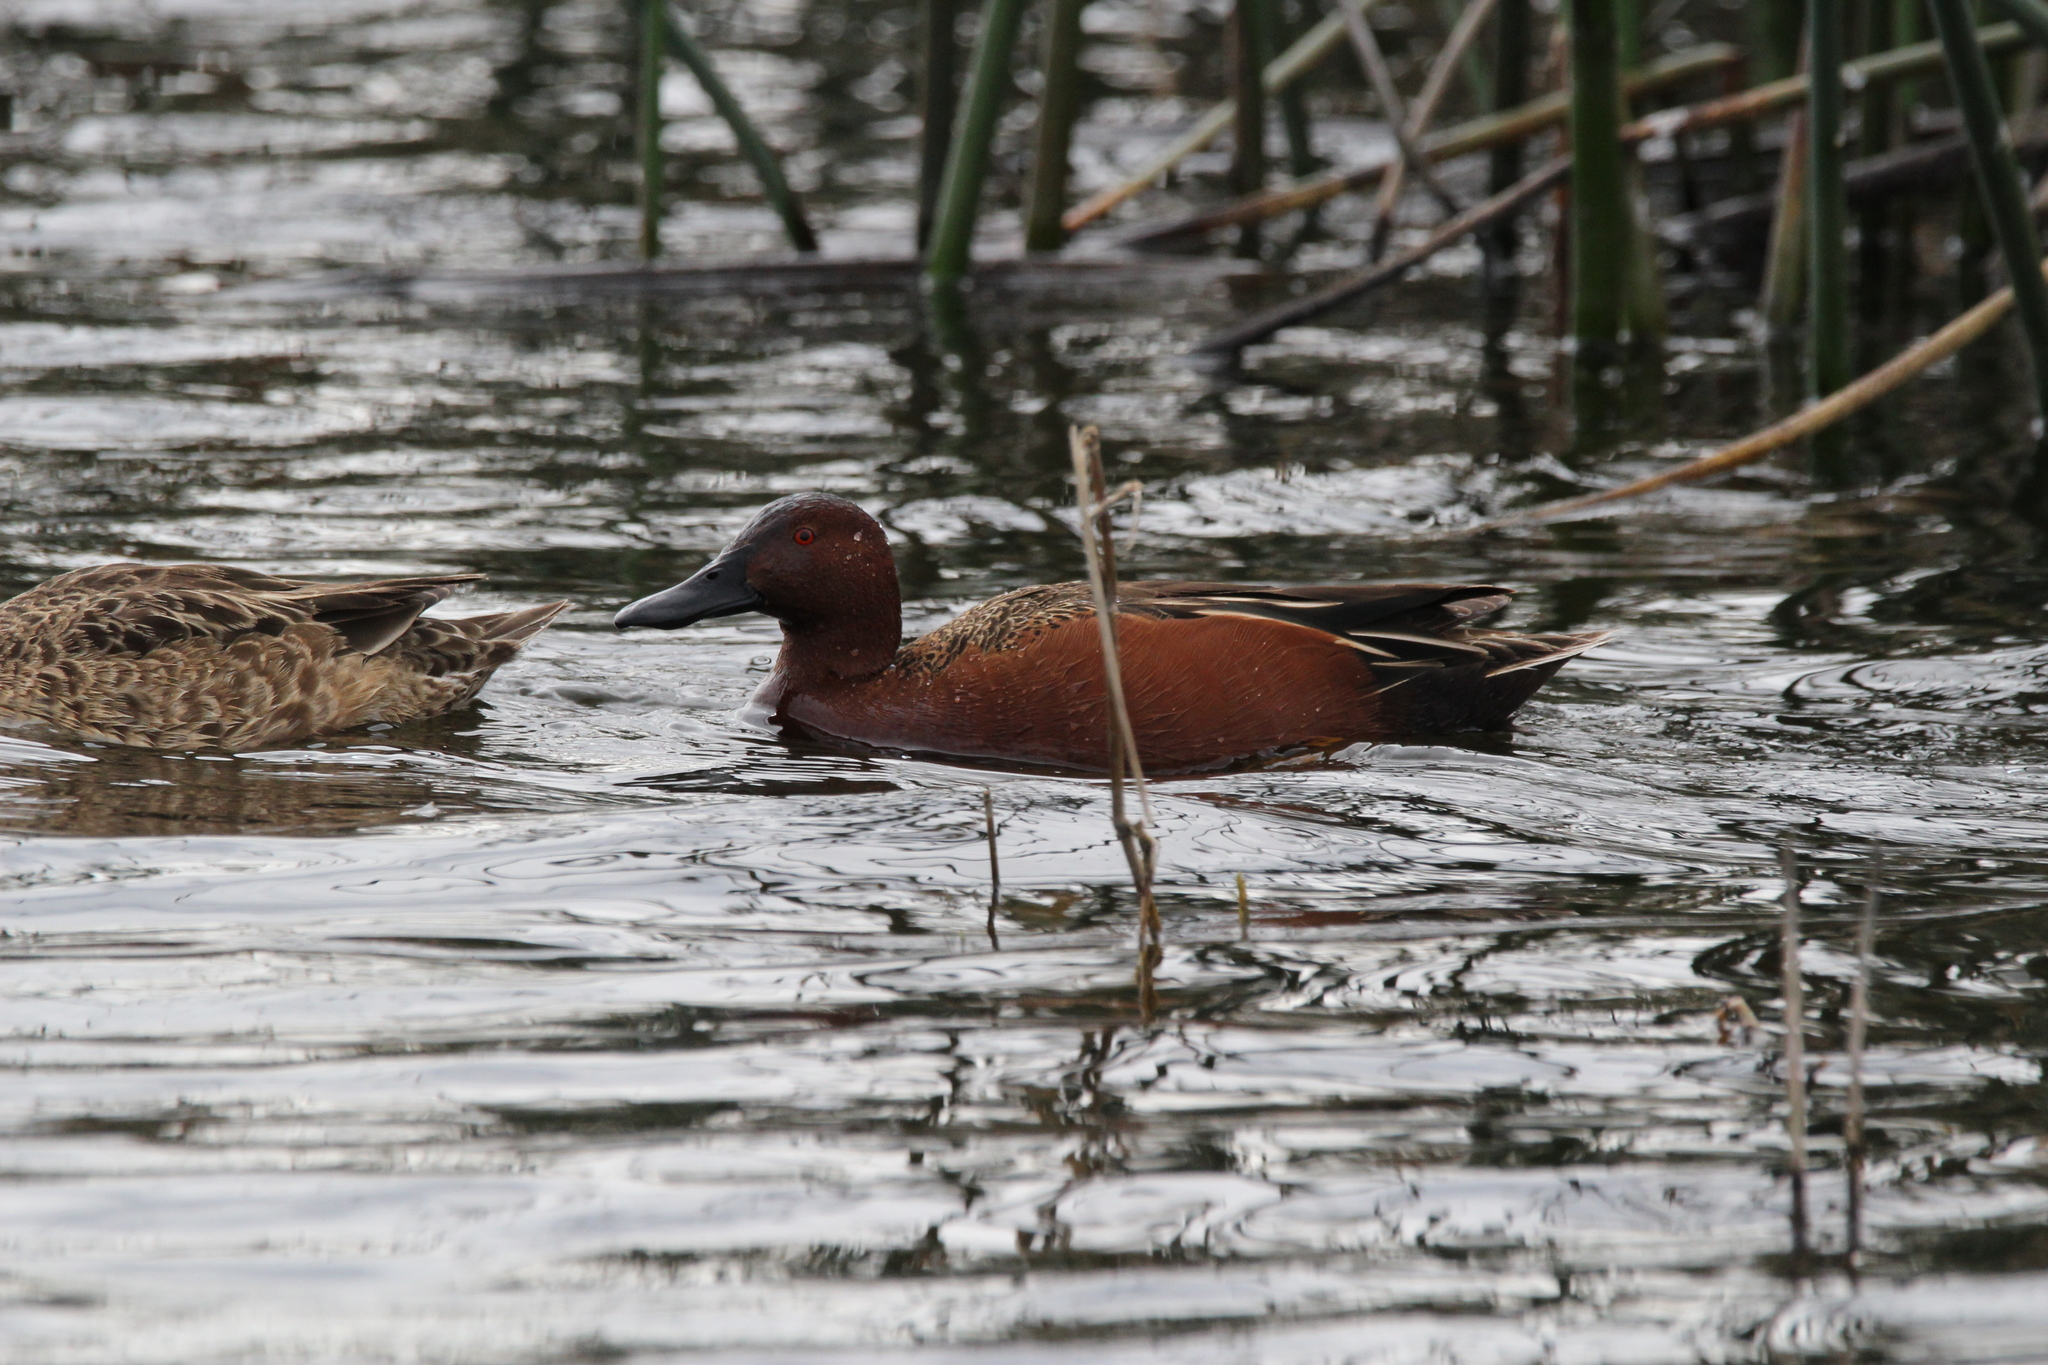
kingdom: Animalia
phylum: Chordata
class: Aves
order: Anseriformes
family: Anatidae
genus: Spatula
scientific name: Spatula cyanoptera
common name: Cinnamon teal
